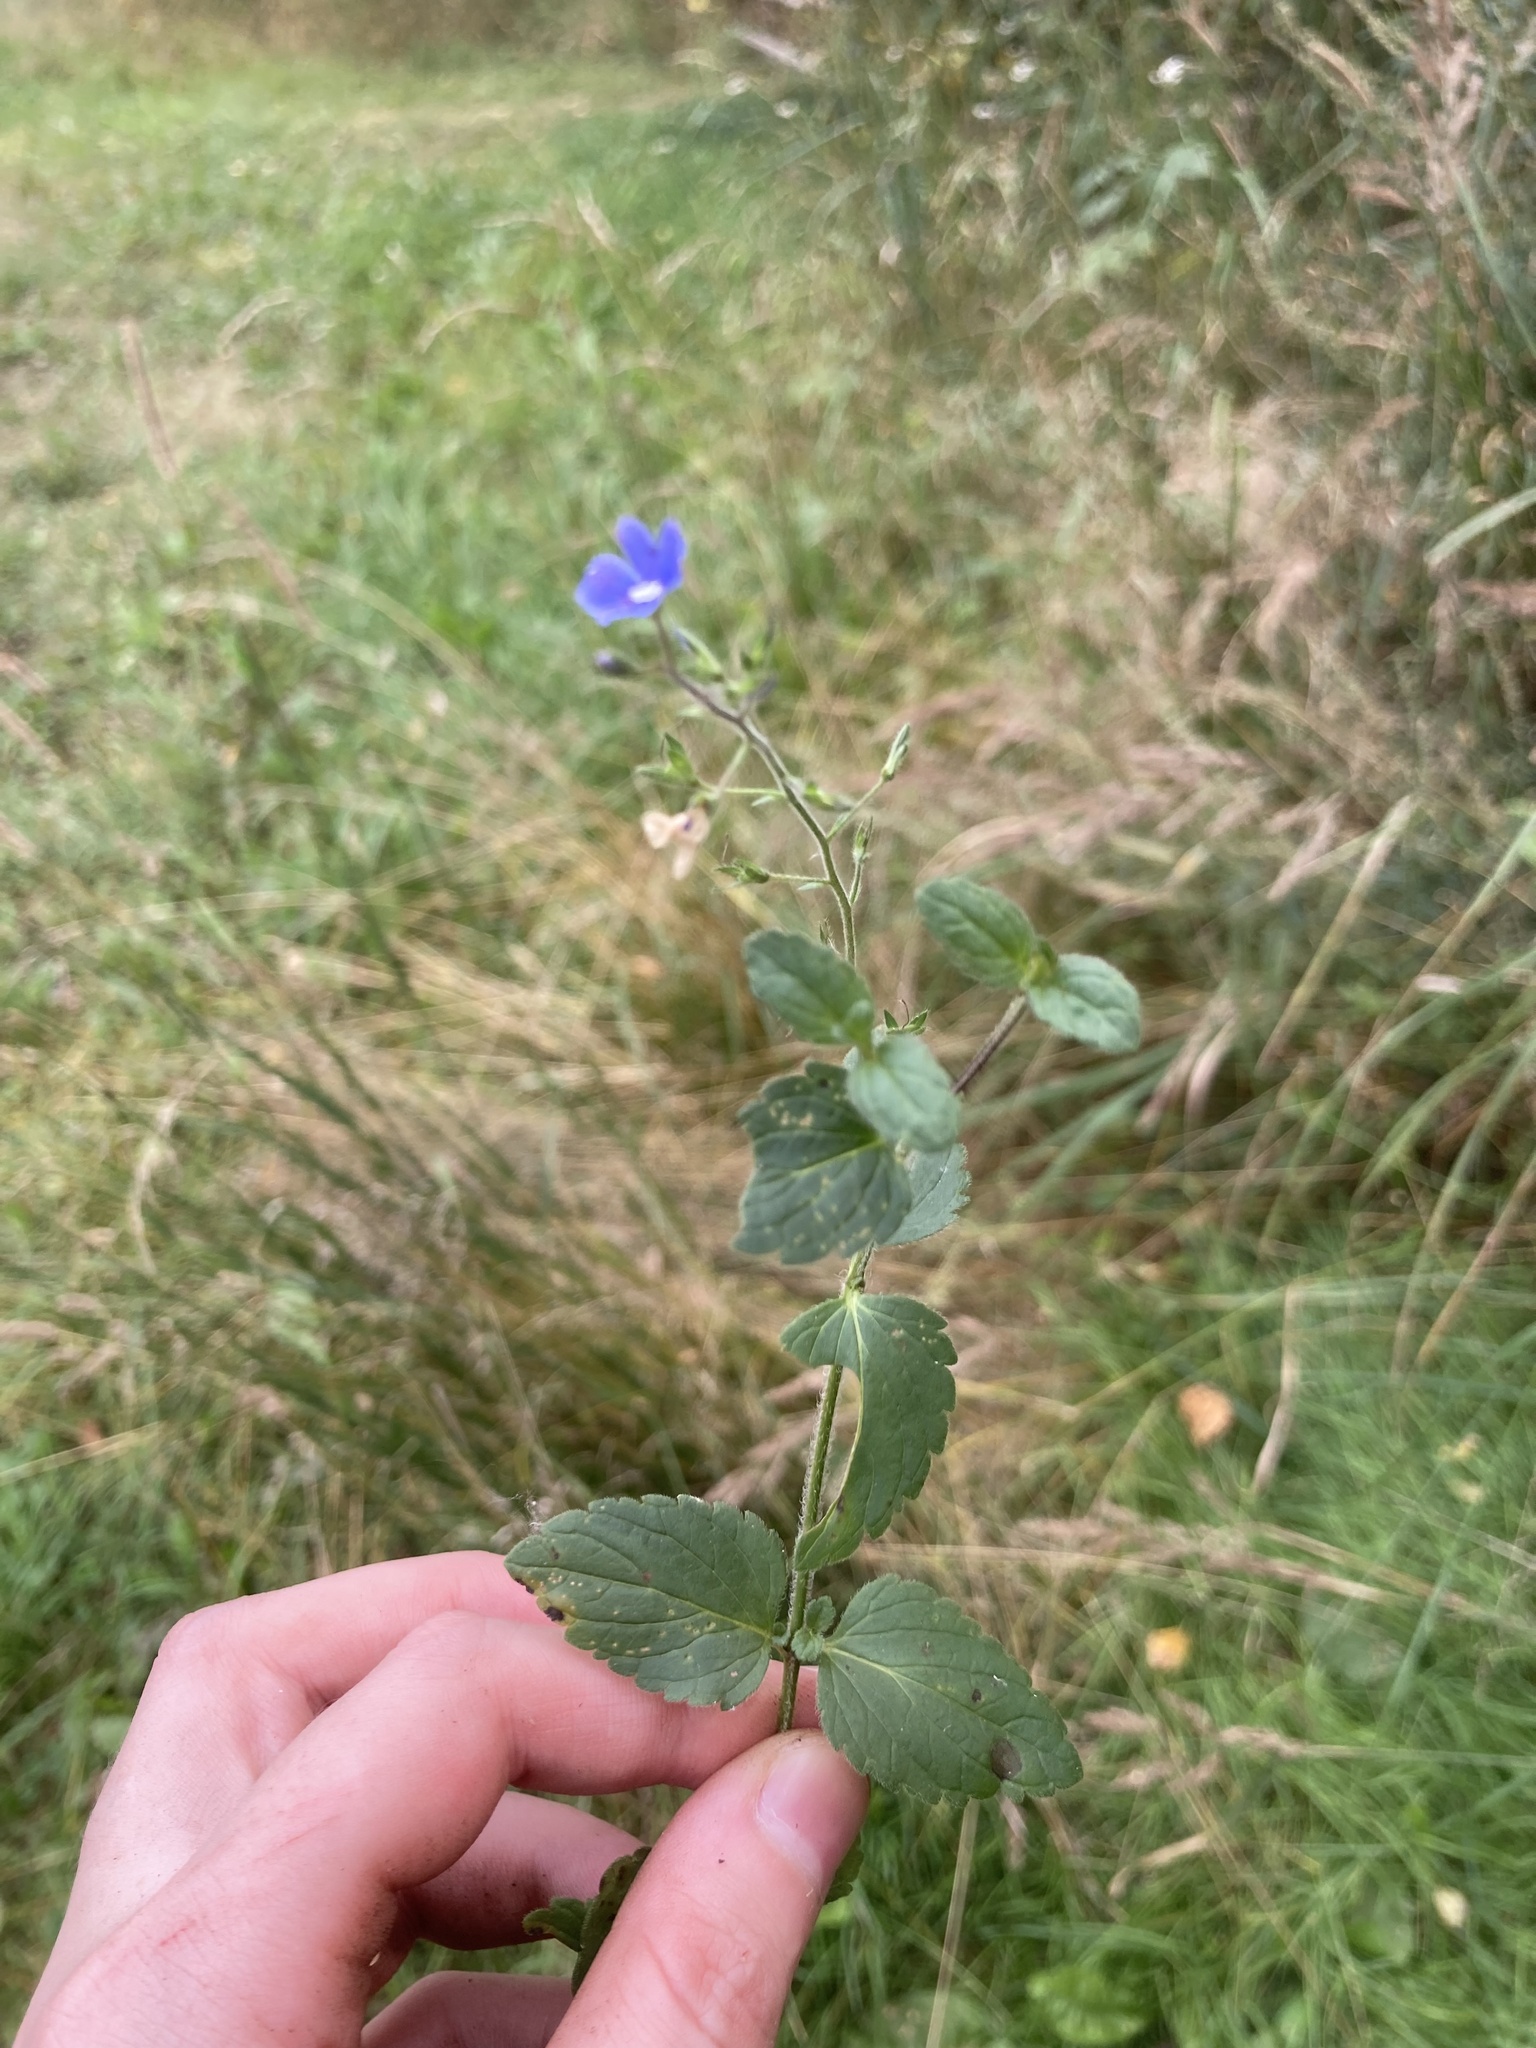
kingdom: Plantae
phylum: Tracheophyta
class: Magnoliopsida
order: Lamiales
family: Plantaginaceae
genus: Veronica
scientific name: Veronica chamaedrys
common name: Germander speedwell
